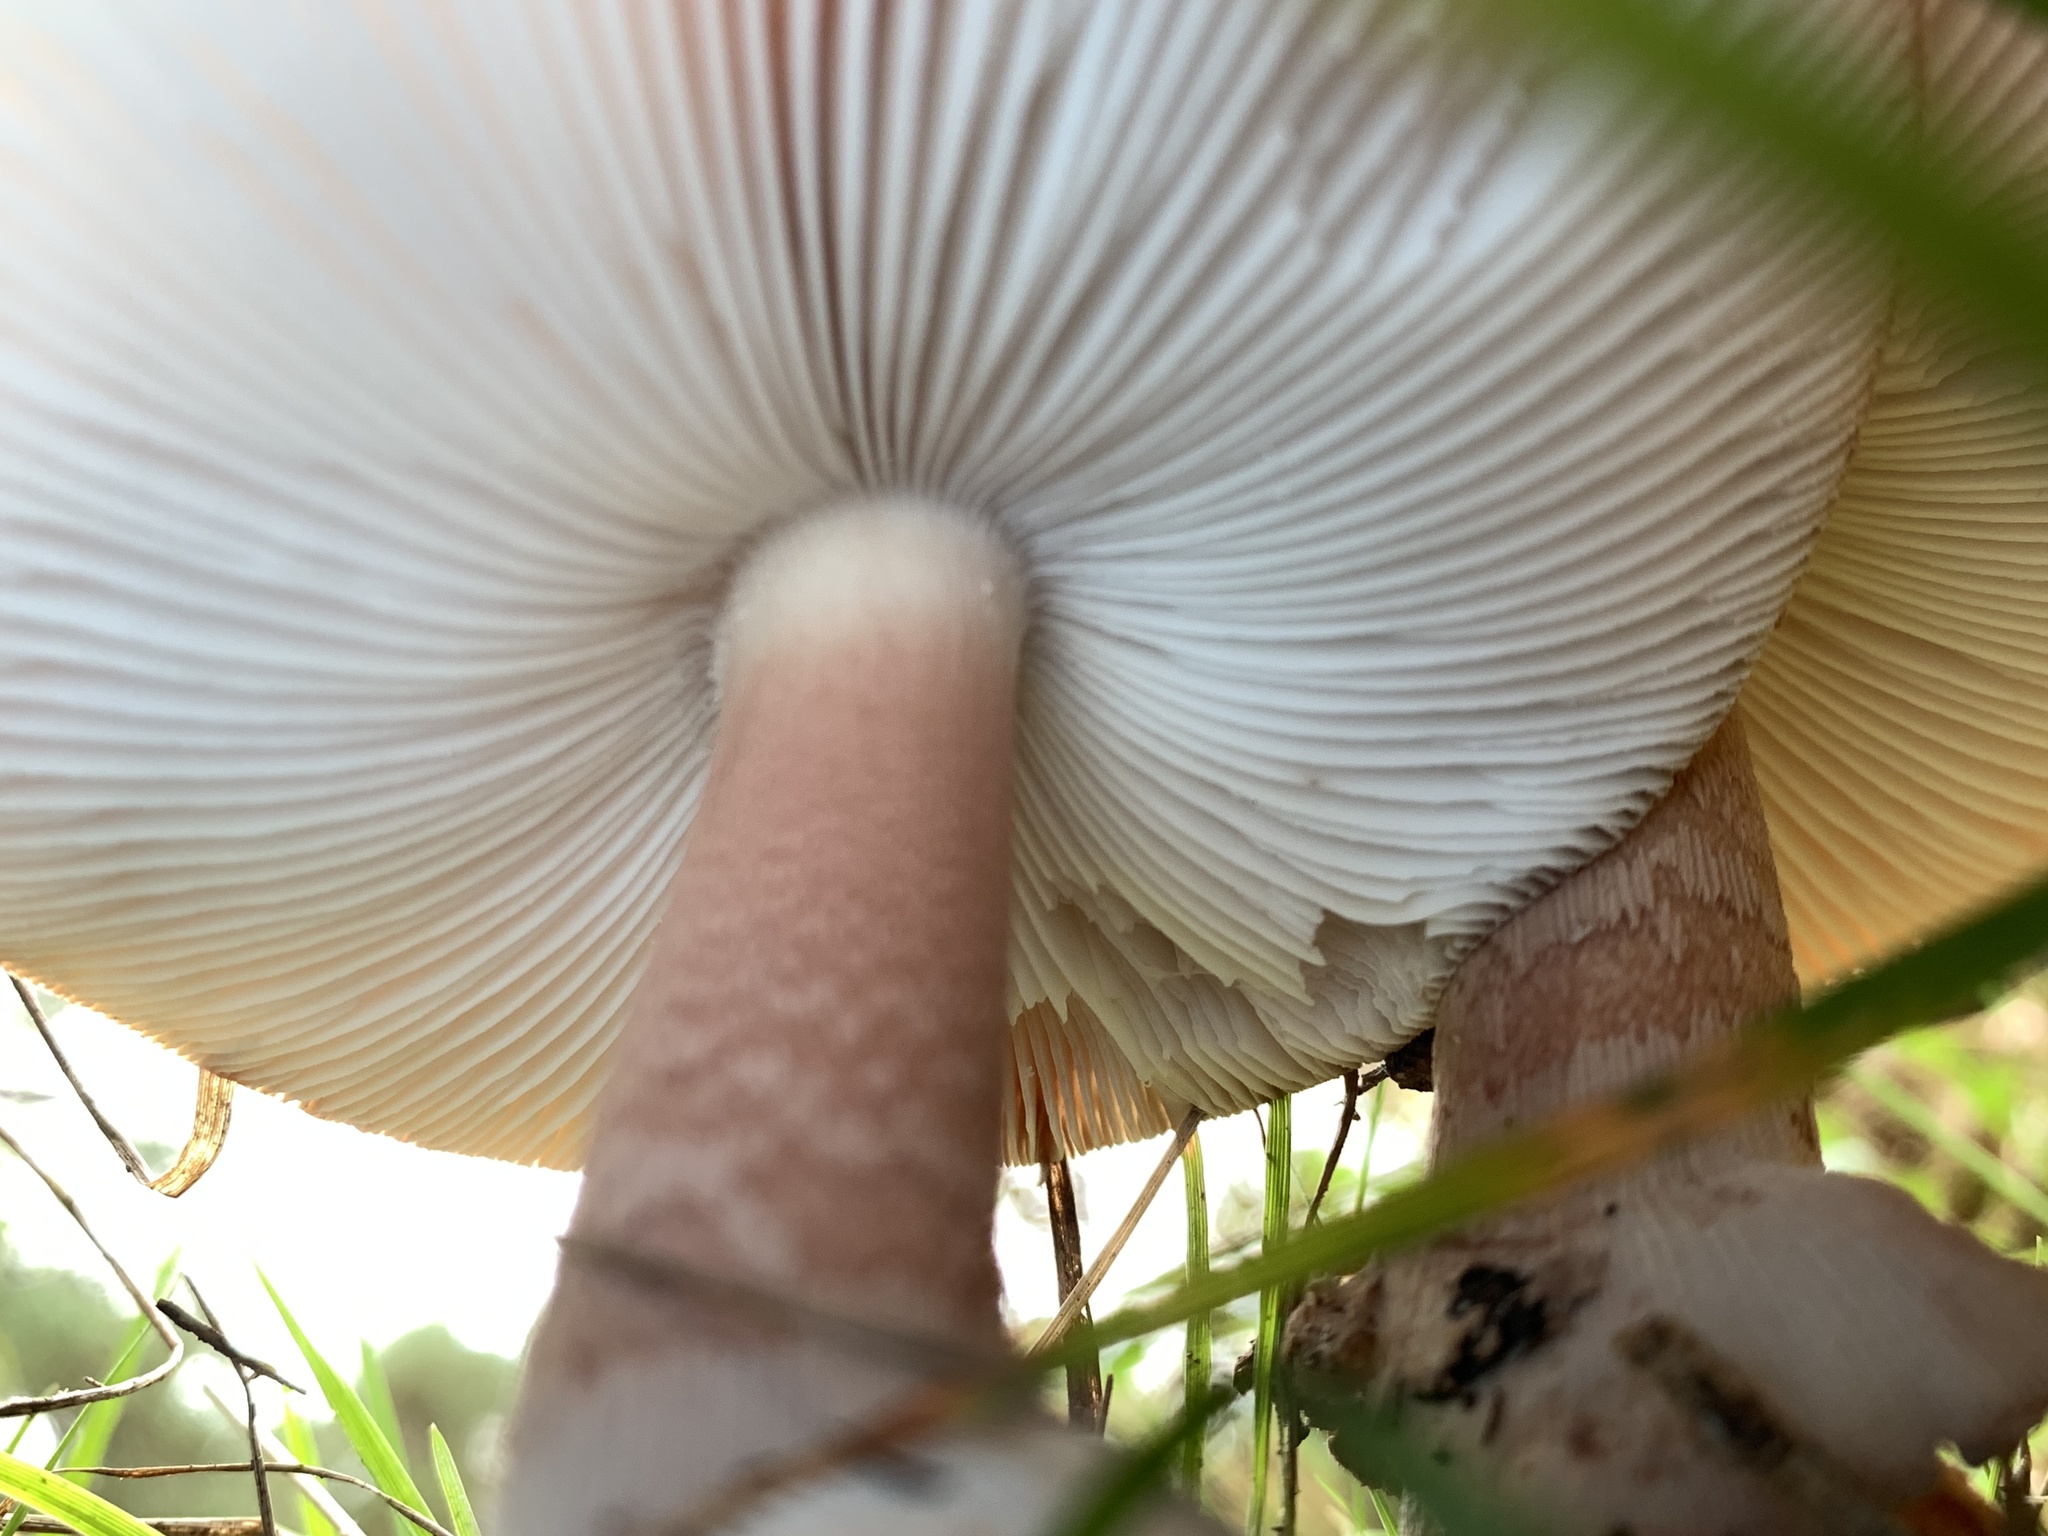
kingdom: Fungi
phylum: Basidiomycota
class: Agaricomycetes
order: Agaricales
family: Amanitaceae
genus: Amanita
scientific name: Amanita rubescens
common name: Blusher
